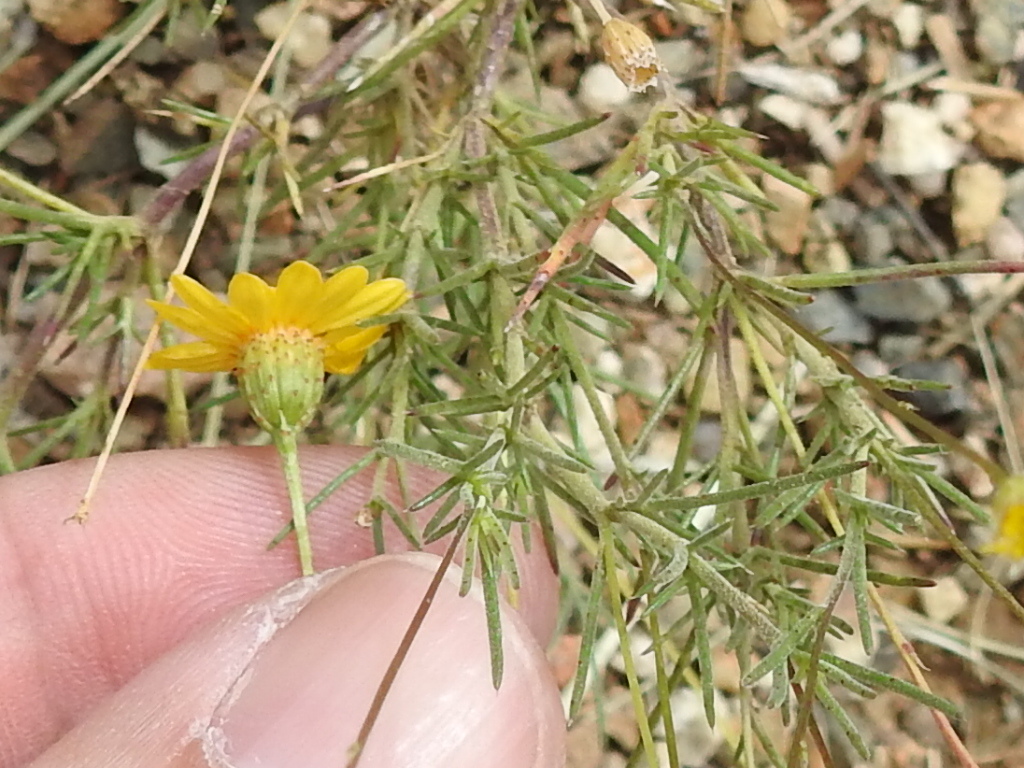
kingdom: Plantae
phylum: Tracheophyta
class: Magnoliopsida
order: Asterales
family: Asteraceae
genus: Thymophylla
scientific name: Thymophylla pentachaeta
